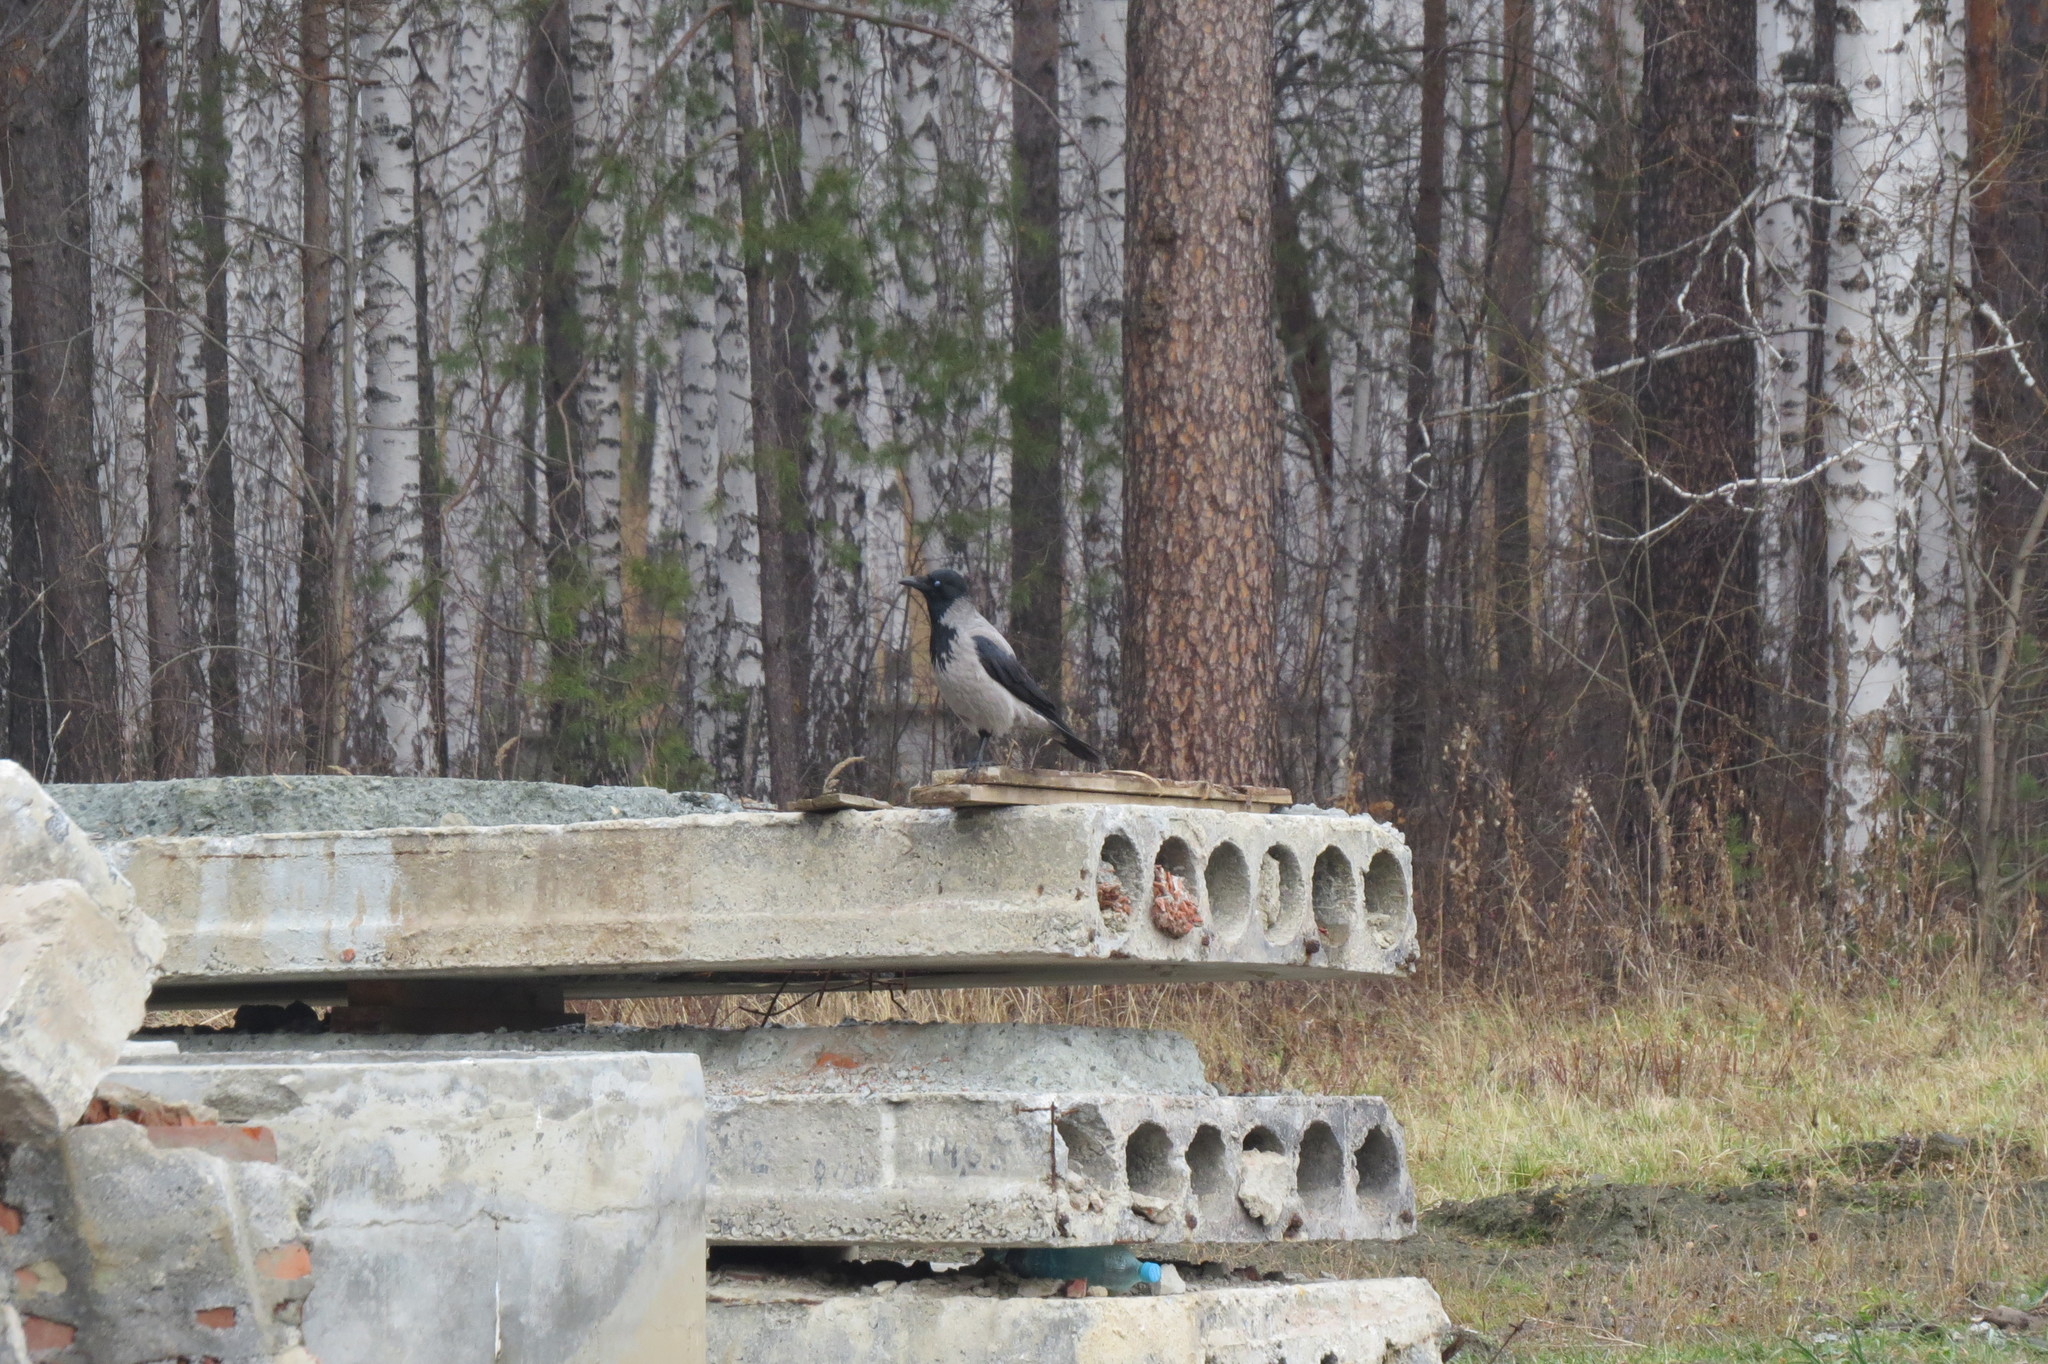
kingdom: Animalia
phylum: Chordata
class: Aves
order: Passeriformes
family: Corvidae
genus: Corvus
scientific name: Corvus cornix
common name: Hooded crow
